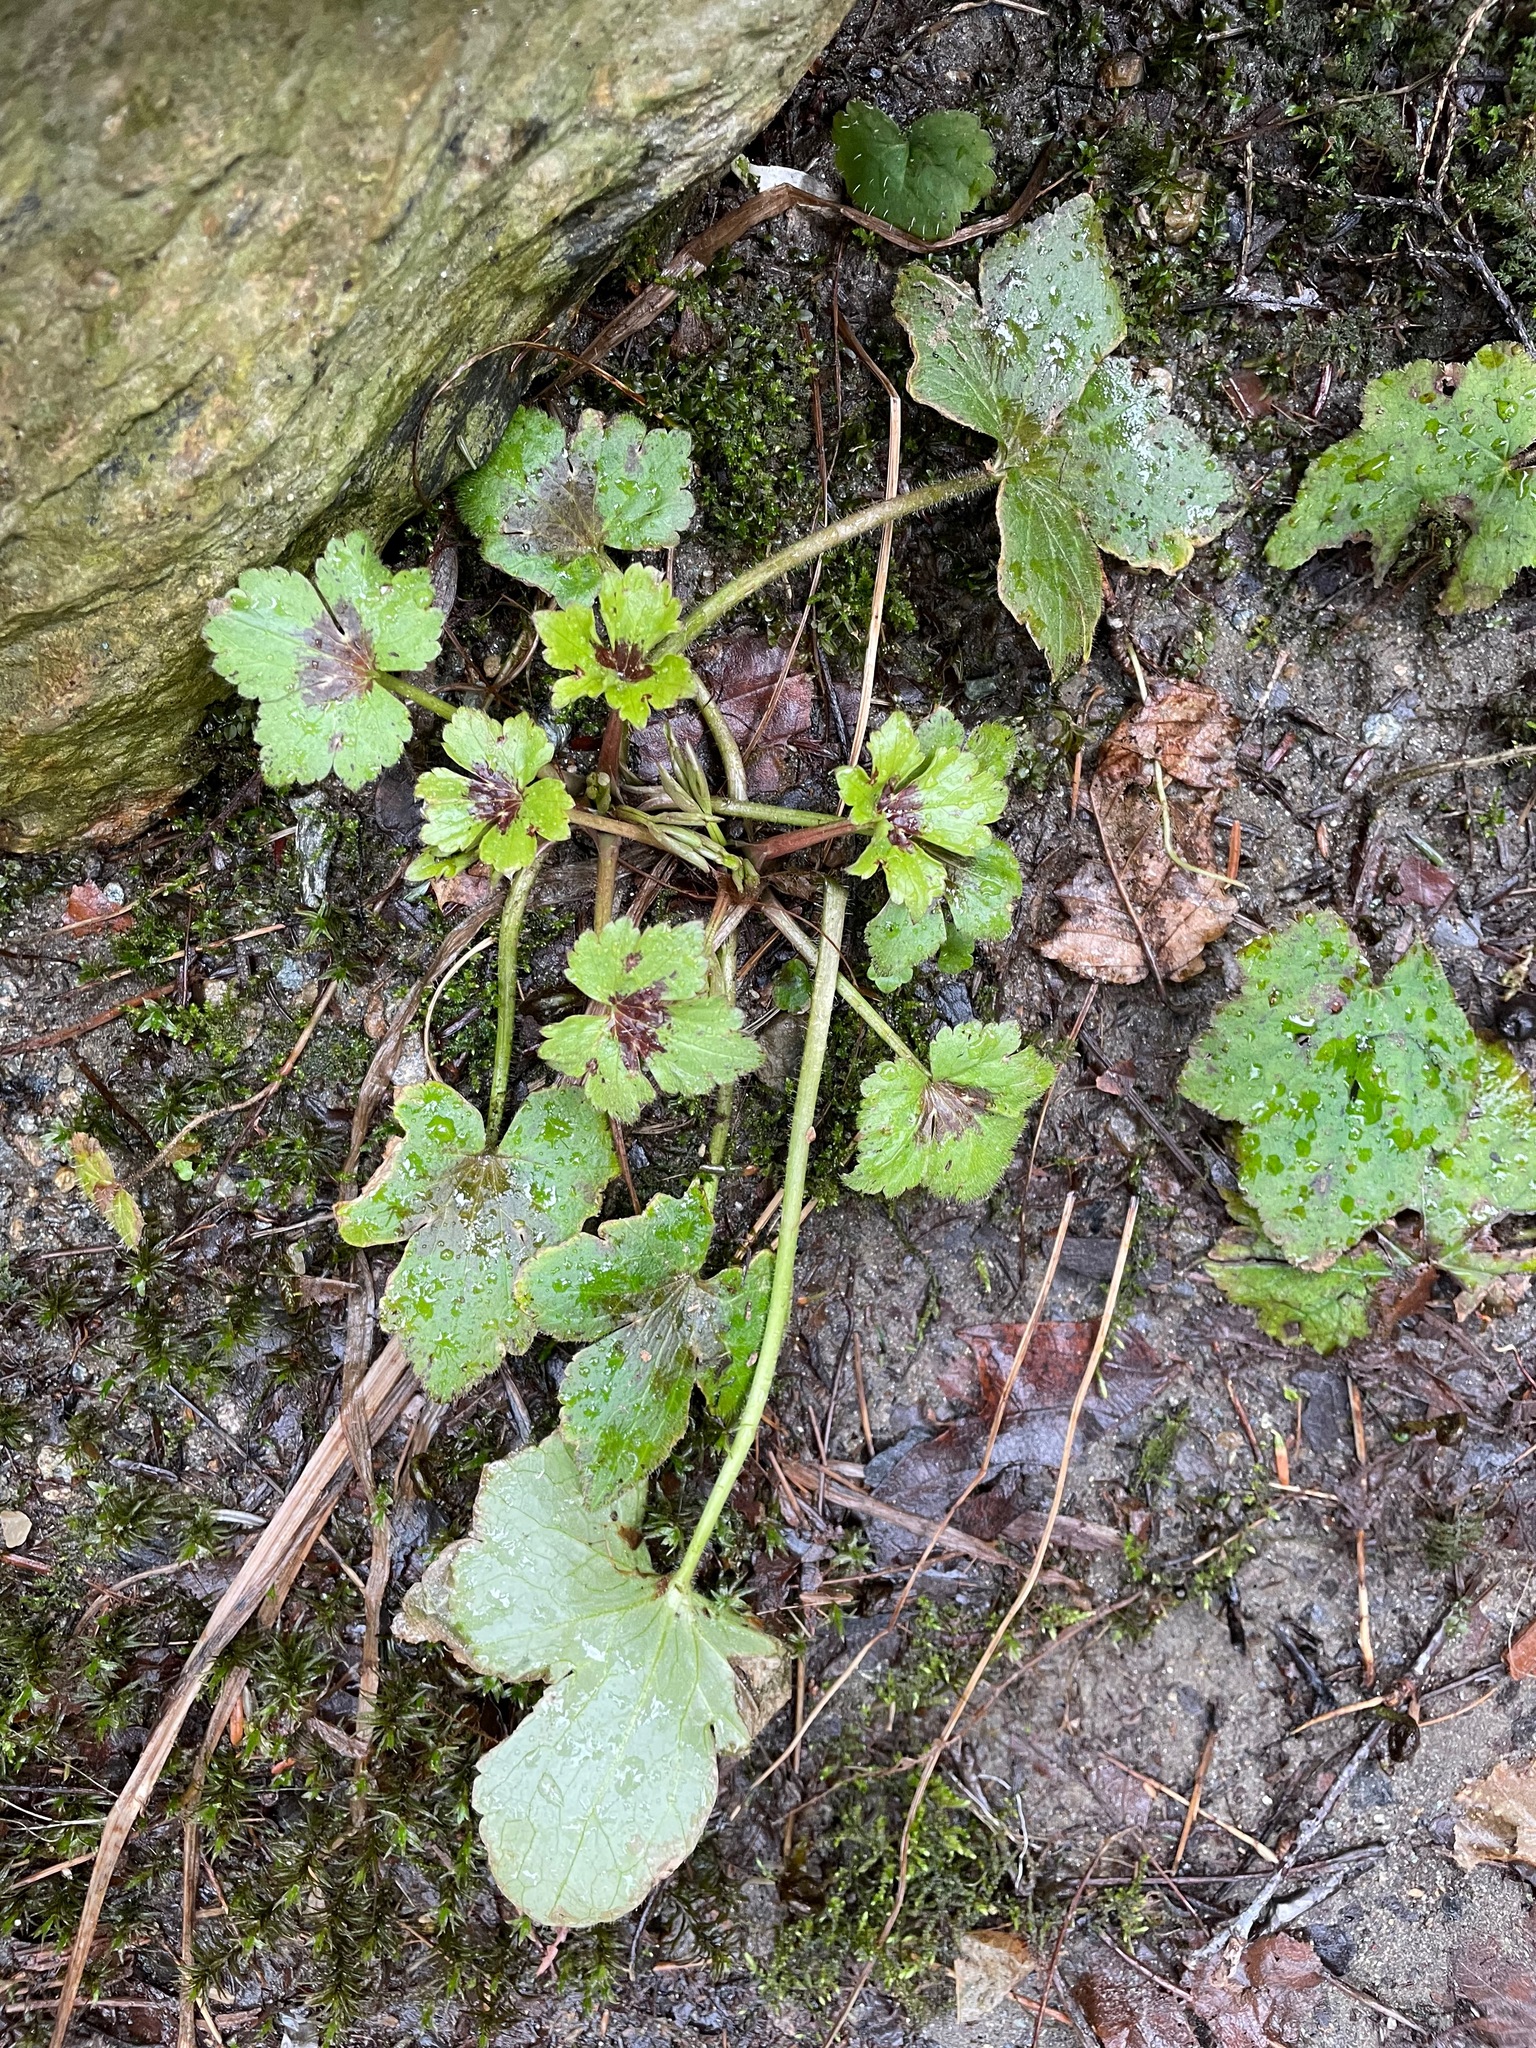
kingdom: Plantae
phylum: Tracheophyta
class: Magnoliopsida
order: Ranunculales
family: Ranunculaceae
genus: Ranunculus
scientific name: Ranunculus recurvatus
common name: Blisterwort
